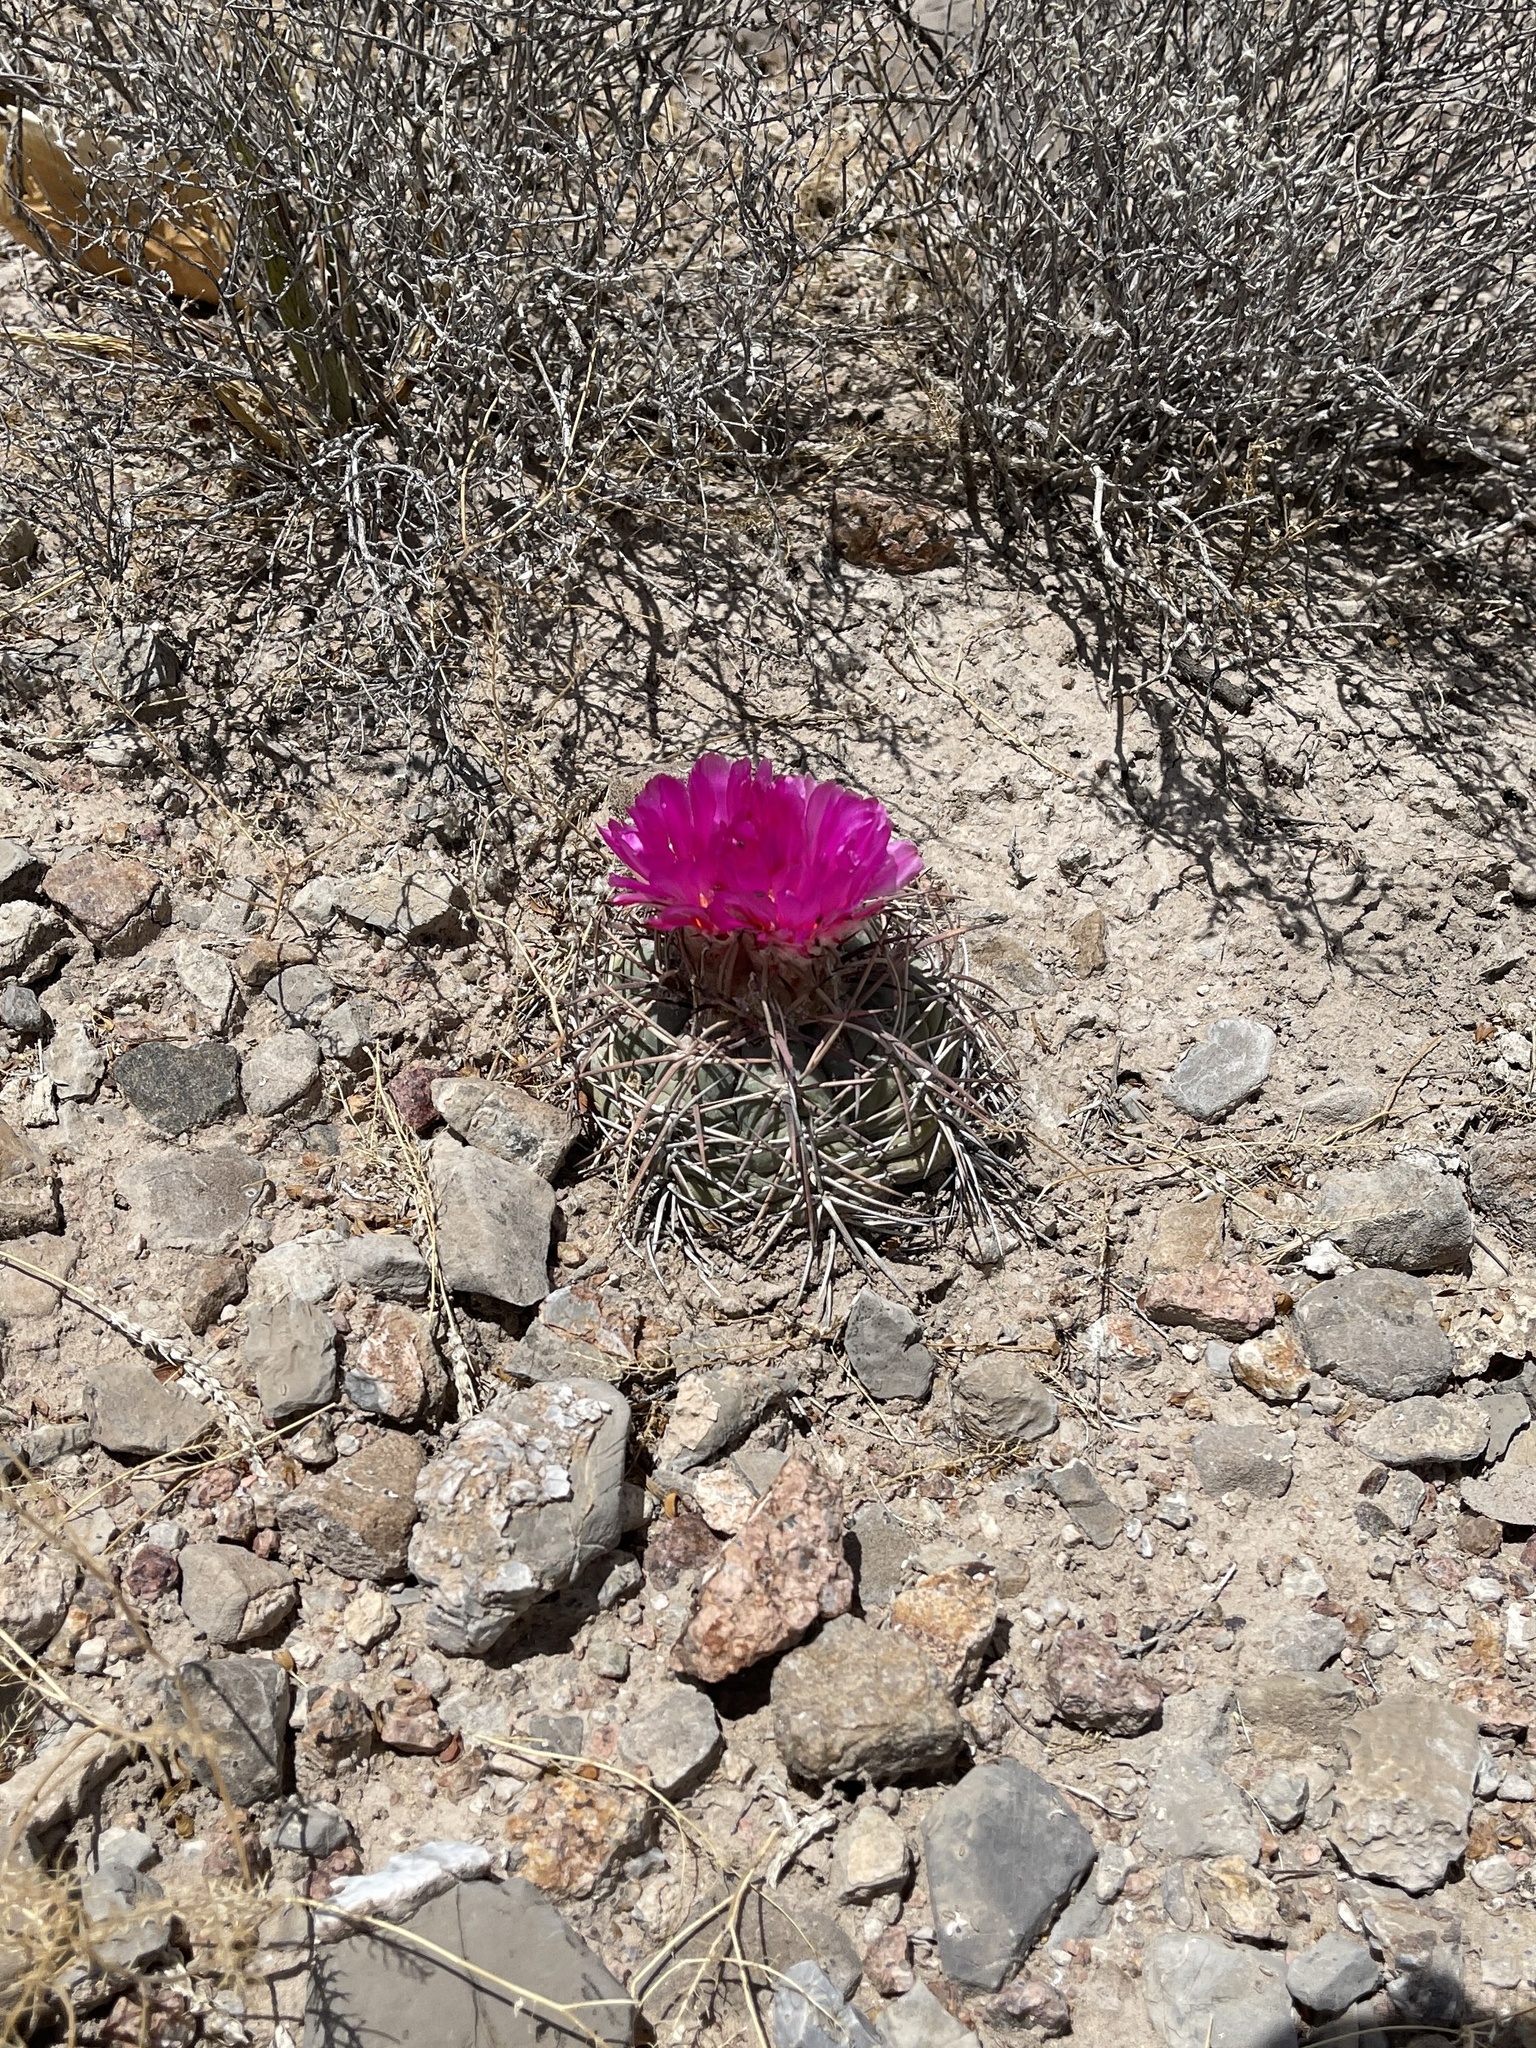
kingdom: Plantae
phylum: Tracheophyta
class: Magnoliopsida
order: Caryophyllales
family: Cactaceae
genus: Echinocactus
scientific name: Echinocactus horizonthalonius
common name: Devilshead
